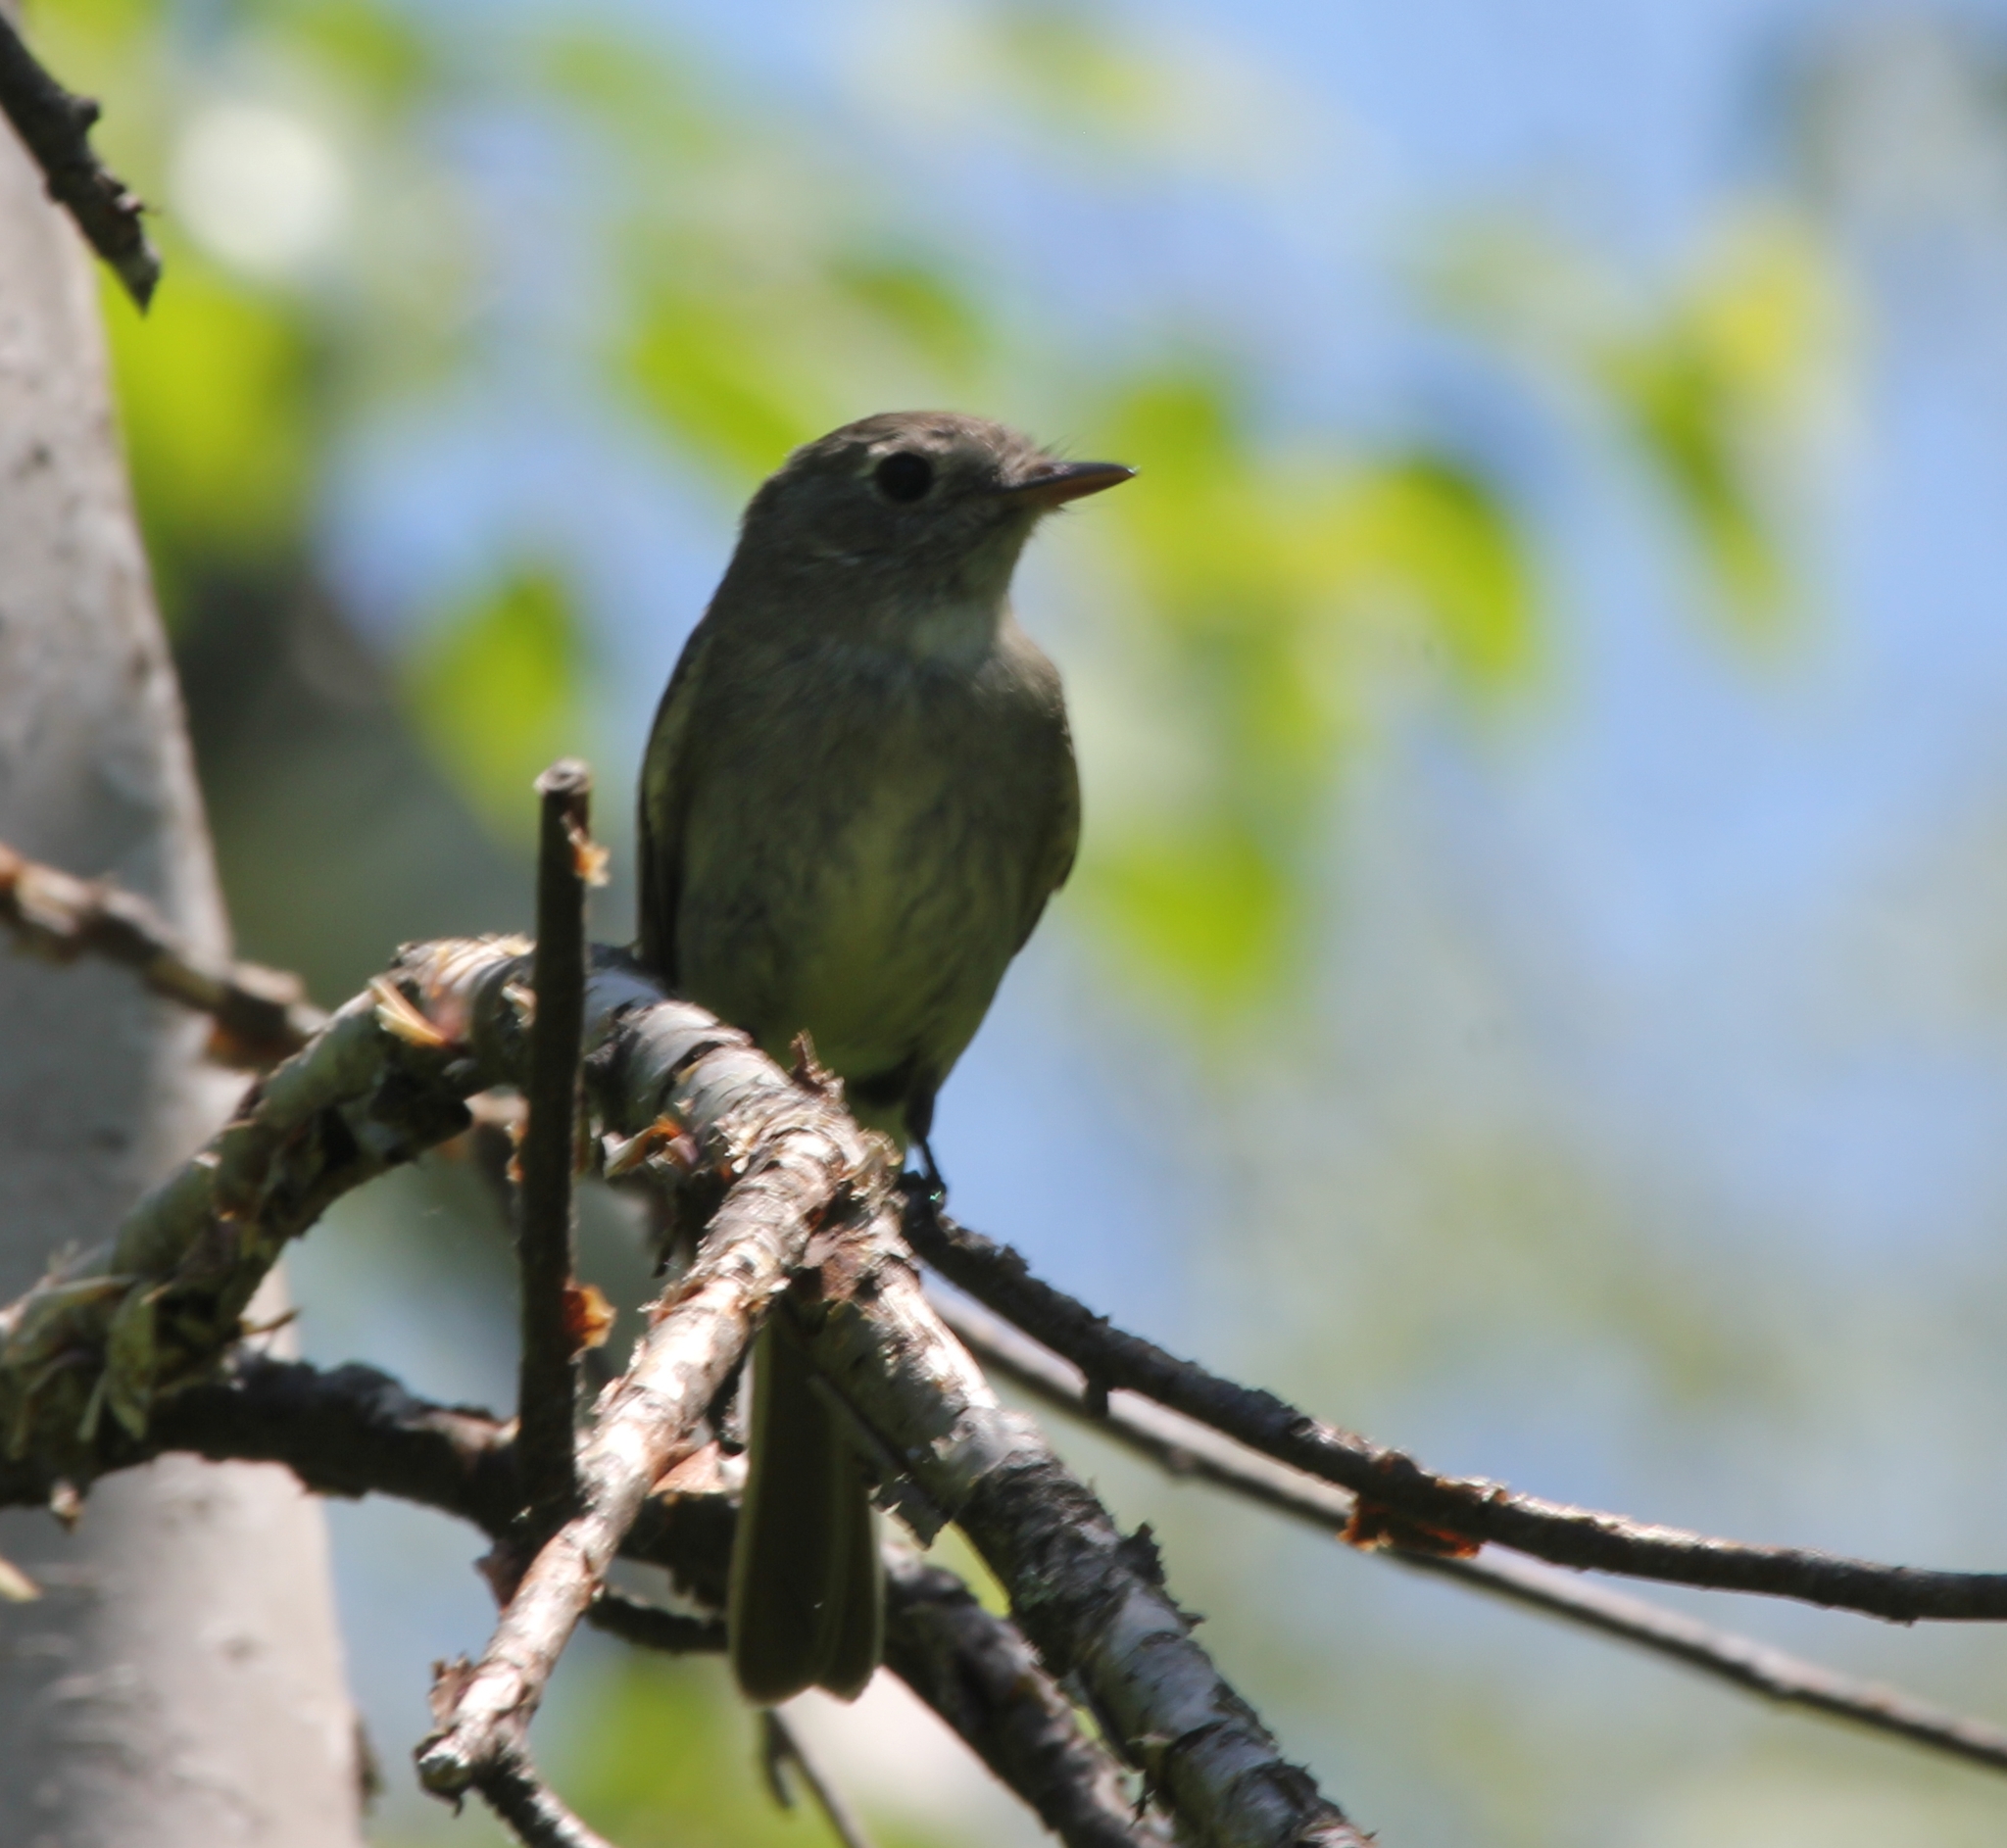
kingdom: Animalia
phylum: Chordata
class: Aves
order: Passeriformes
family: Tyrannidae
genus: Empidonax
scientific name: Empidonax oberholseri
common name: Dusky flycatcher
